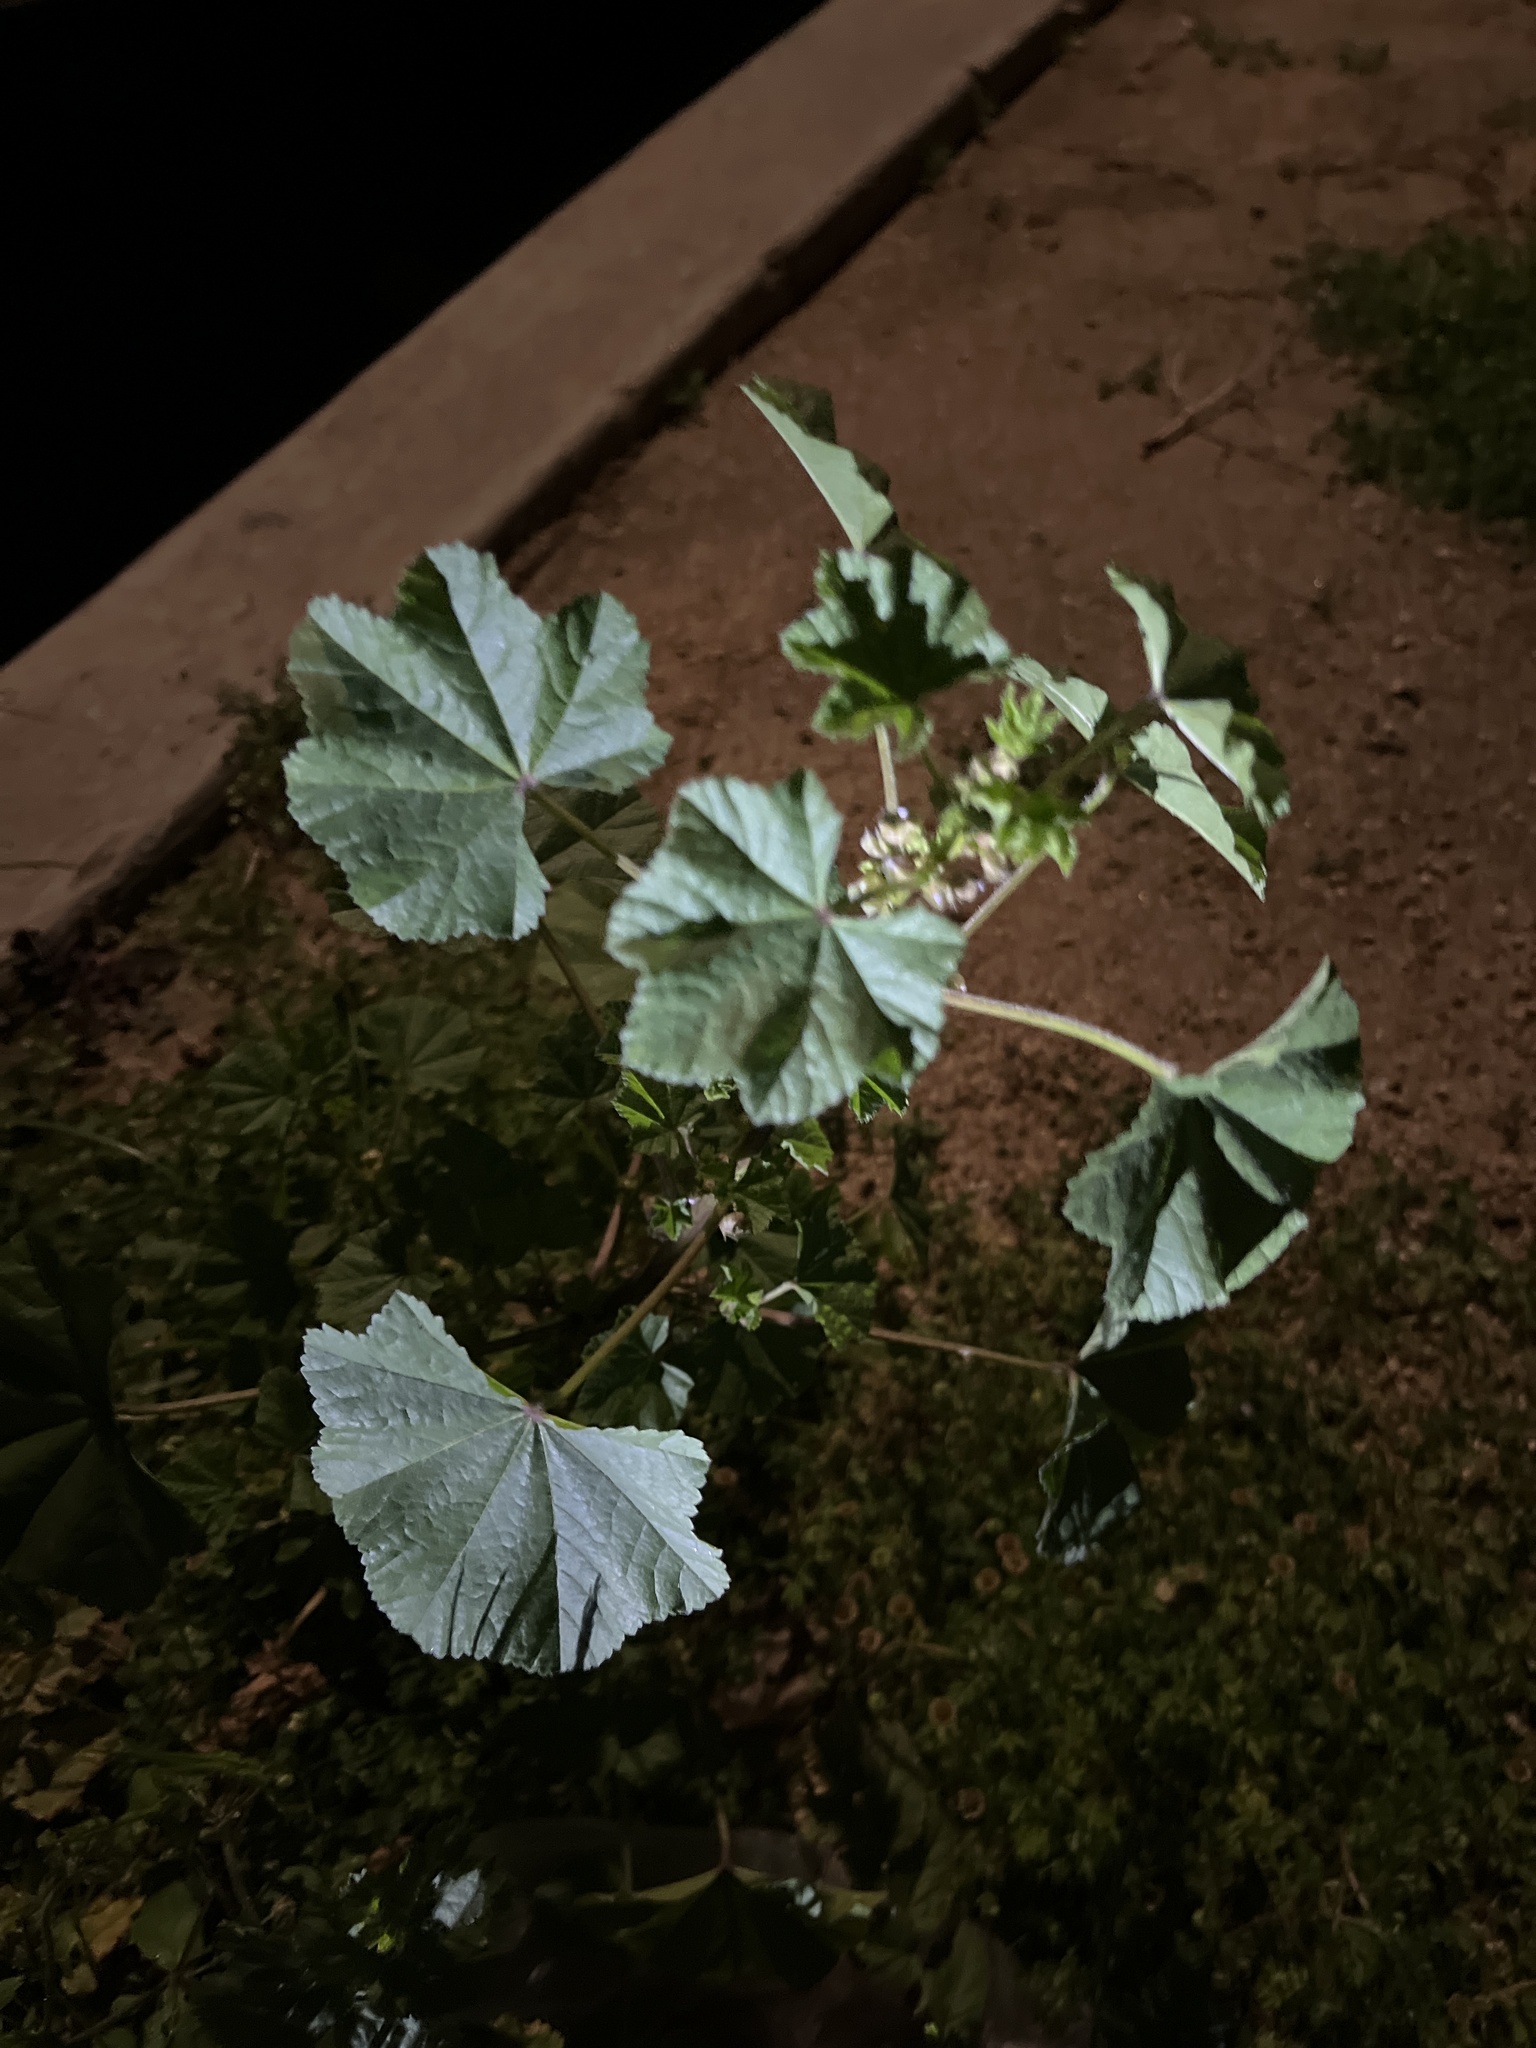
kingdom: Plantae
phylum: Tracheophyta
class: Magnoliopsida
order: Malvales
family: Malvaceae
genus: Malva
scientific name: Malva parviflora
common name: Least mallow
